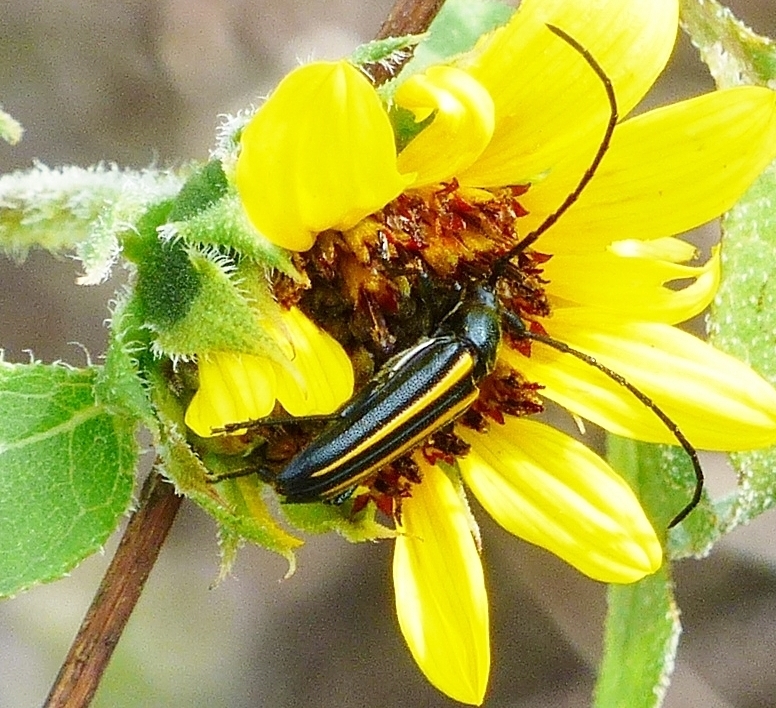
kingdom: Animalia
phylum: Arthropoda
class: Insecta
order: Coleoptera
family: Cerambycidae
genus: Lophalia
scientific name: Lophalia cyanicollis
